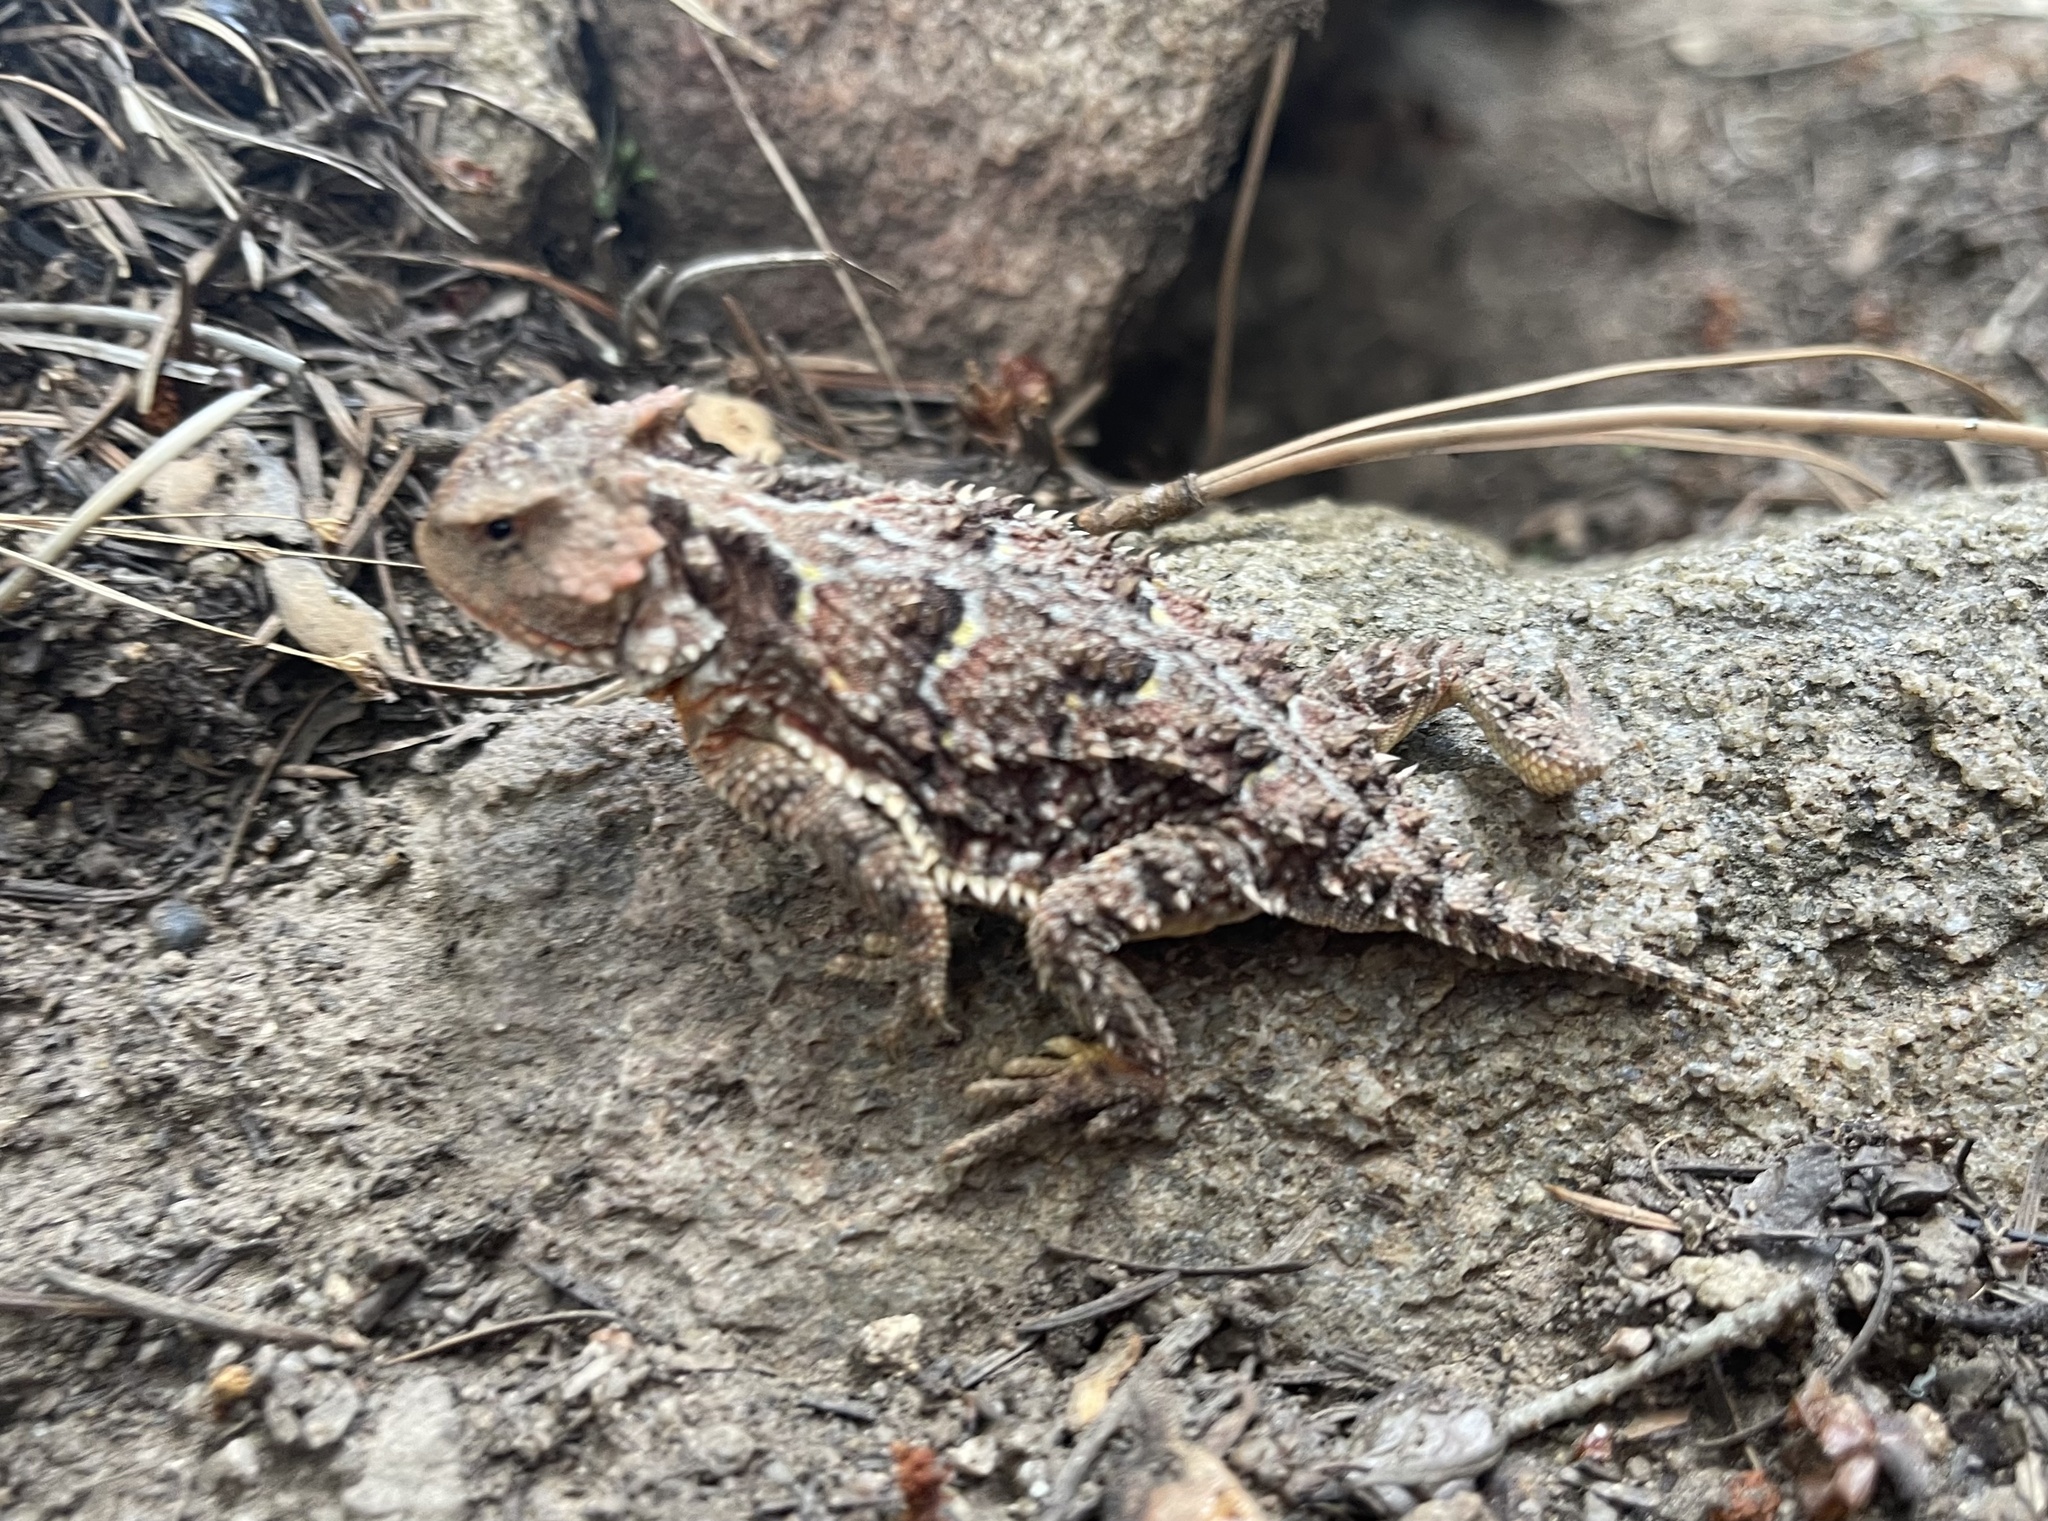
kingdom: Animalia
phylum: Chordata
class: Squamata
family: Phrynosomatidae
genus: Phrynosoma
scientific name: Phrynosoma hernandesi
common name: Greater short-horned lizard
